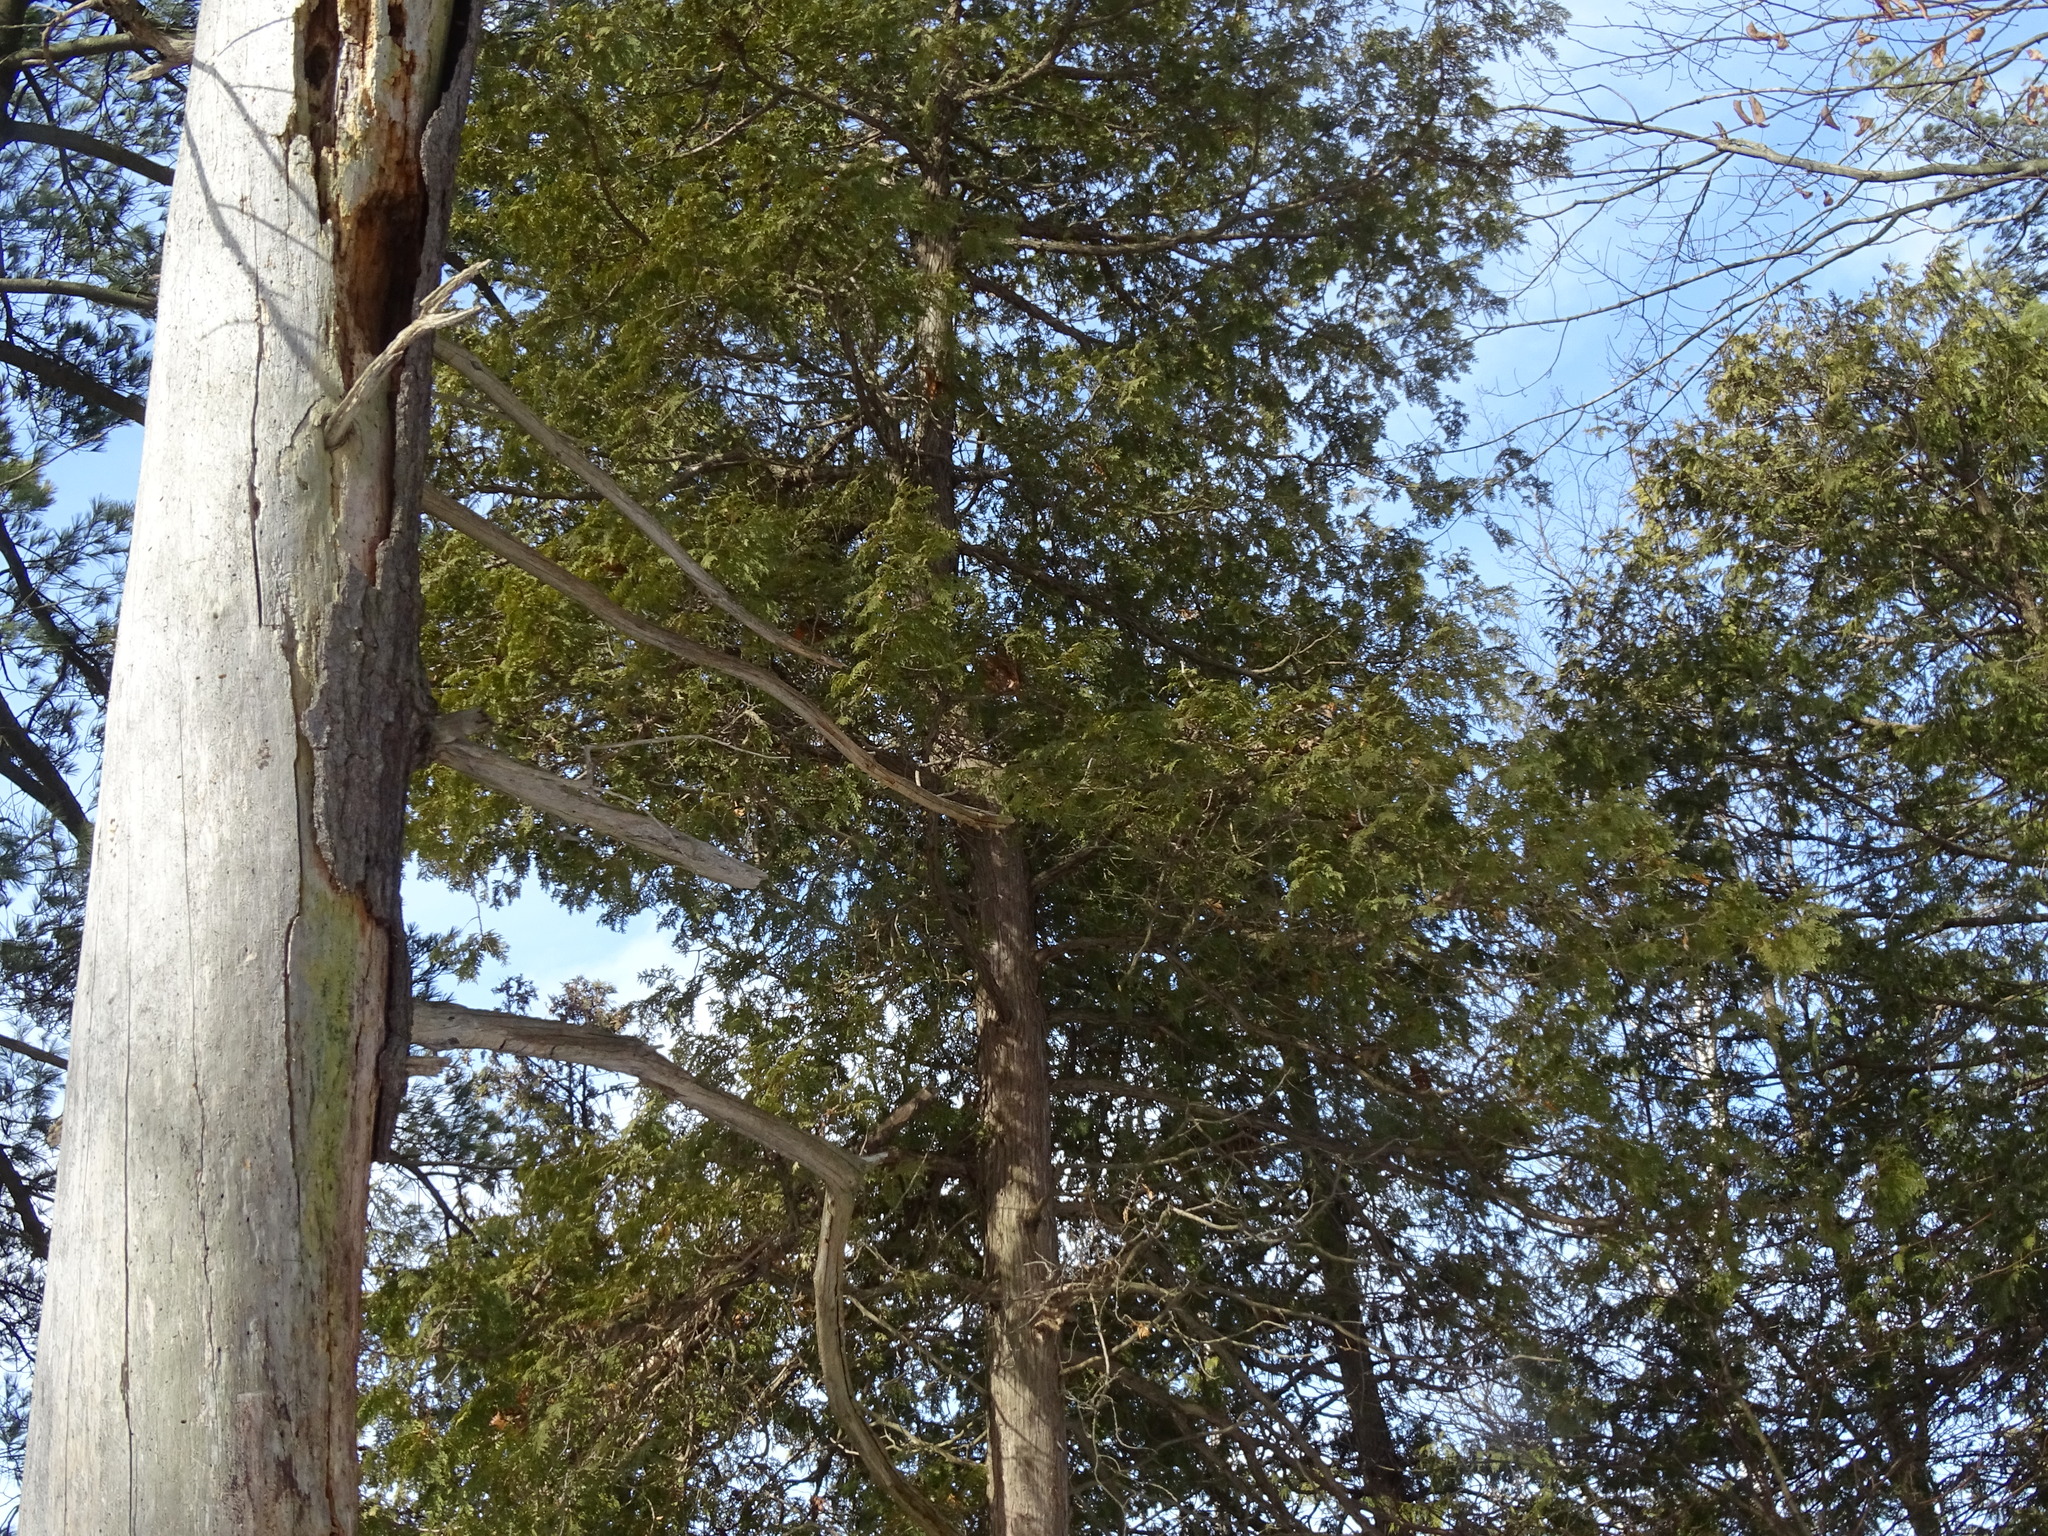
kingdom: Plantae
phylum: Tracheophyta
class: Pinopsida
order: Pinales
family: Cupressaceae
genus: Thuja
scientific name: Thuja occidentalis
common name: Northern white-cedar
